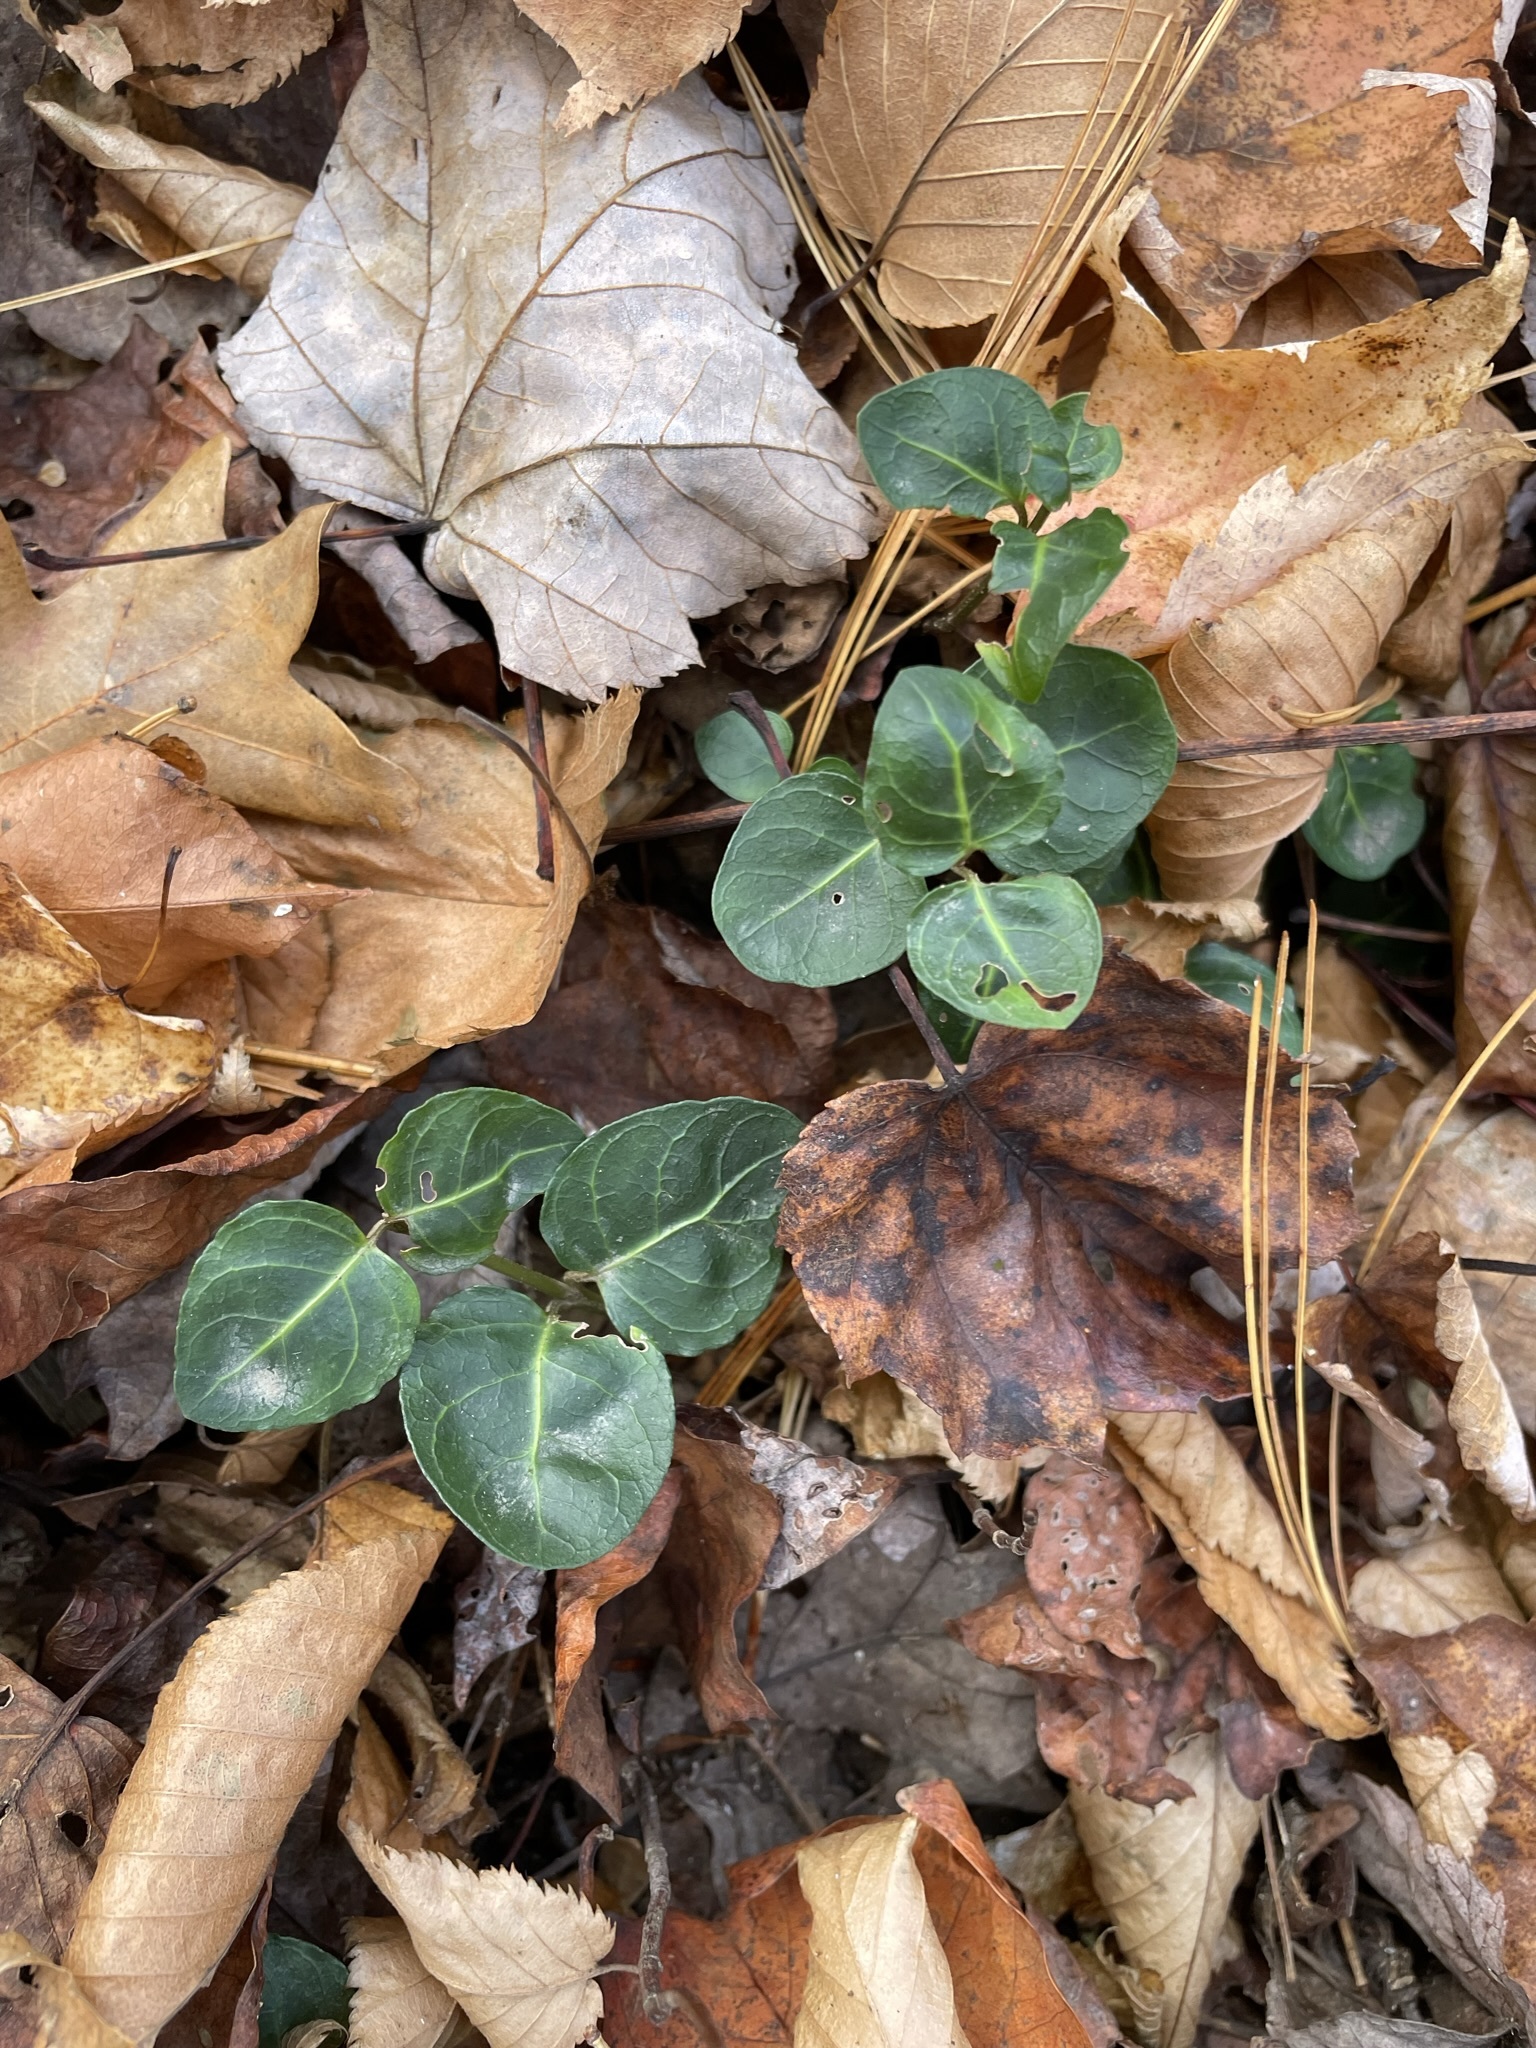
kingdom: Plantae
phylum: Tracheophyta
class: Magnoliopsida
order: Gentianales
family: Rubiaceae
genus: Mitchella
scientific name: Mitchella repens
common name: Partridge-berry
